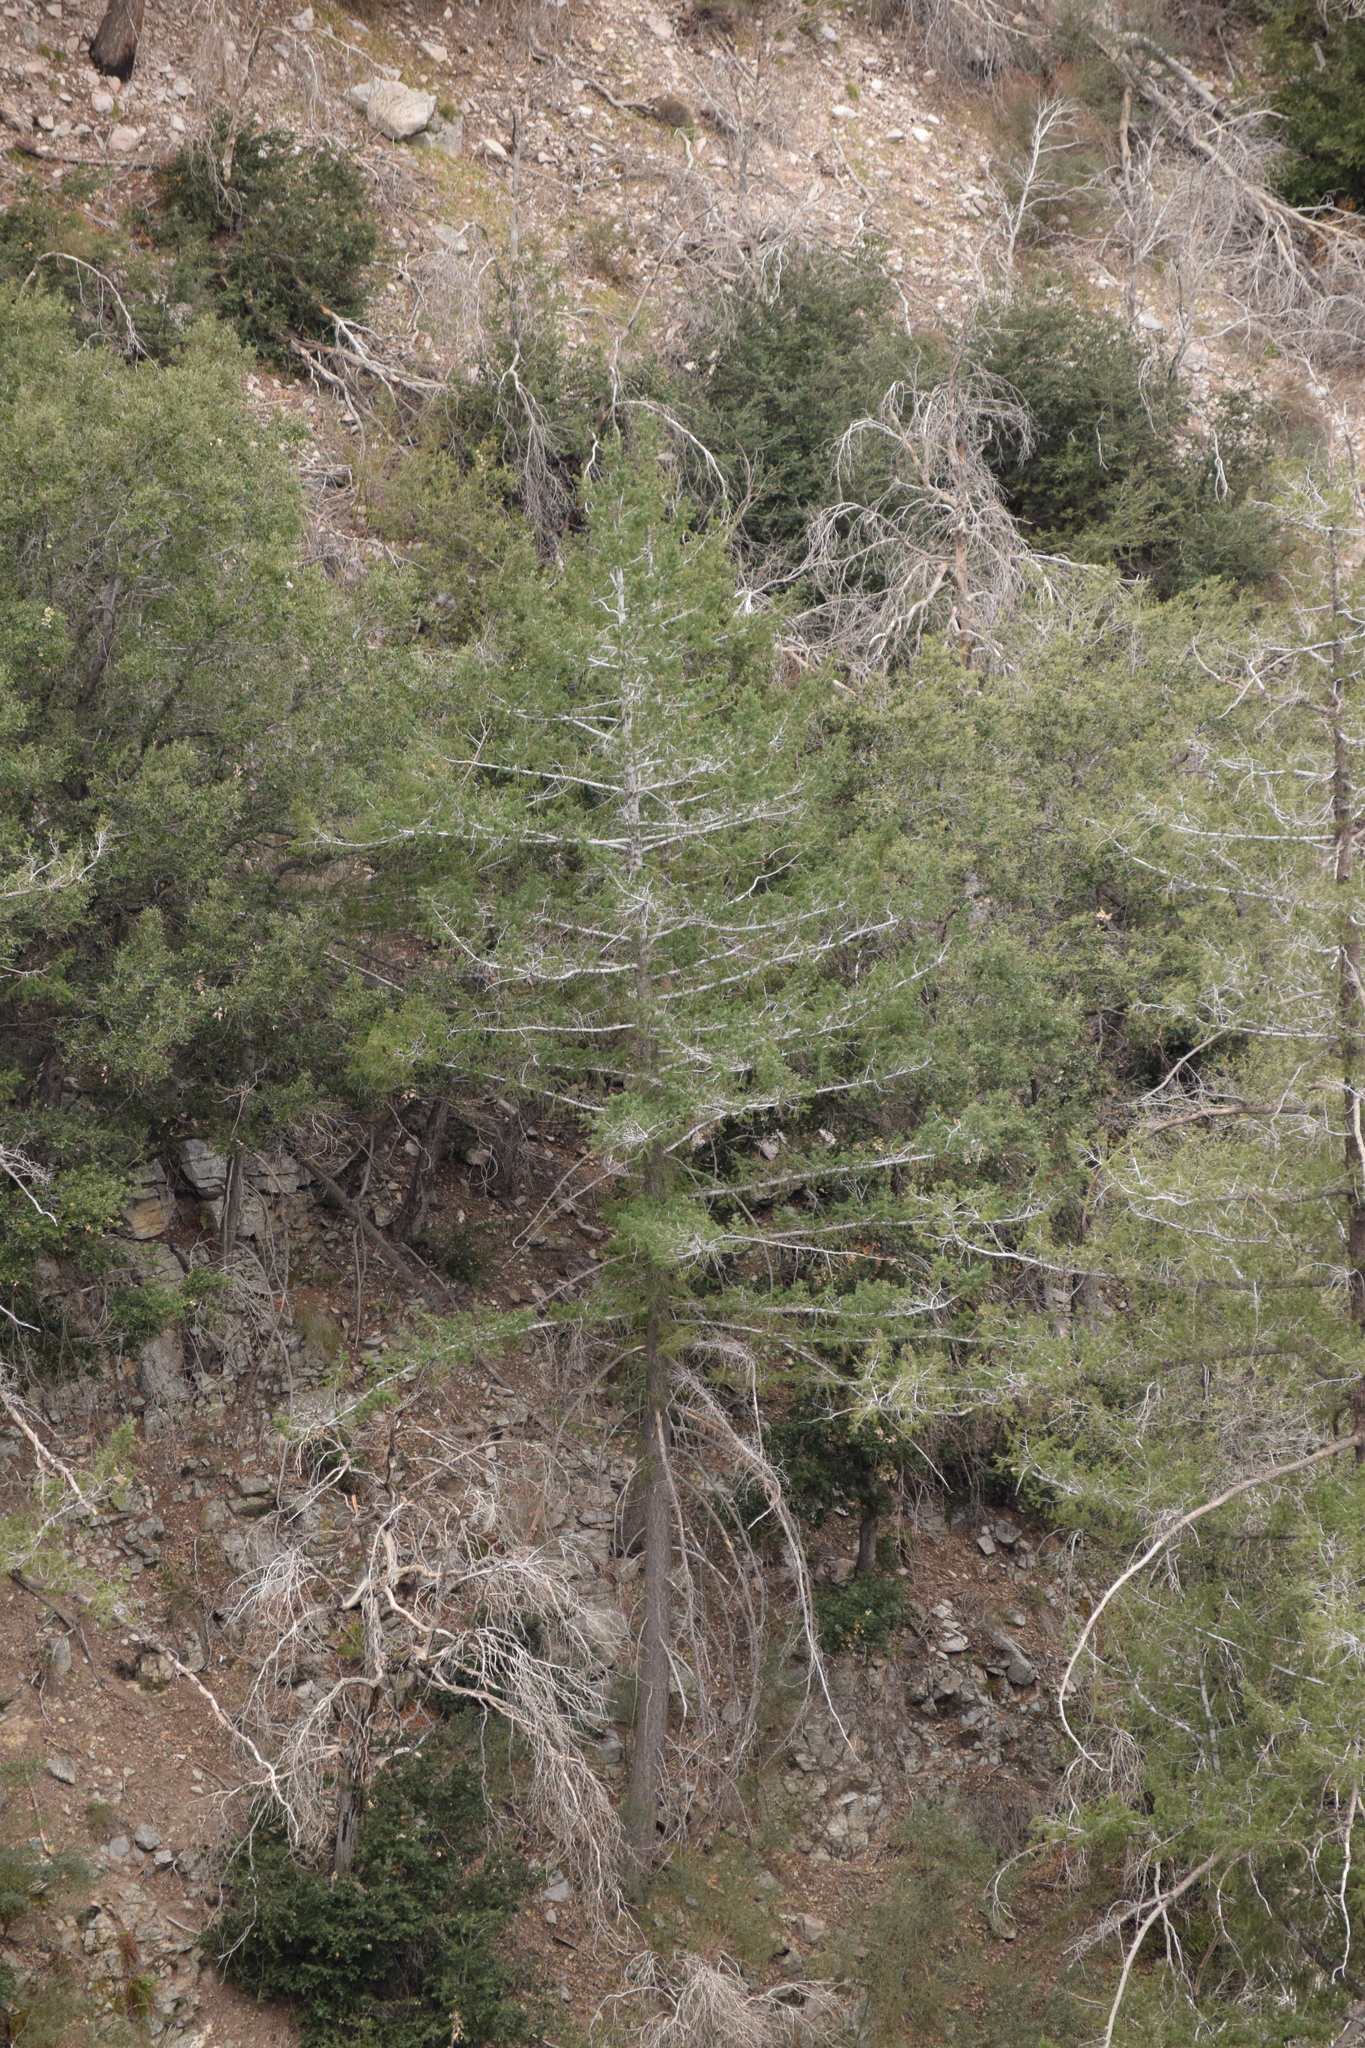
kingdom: Plantae
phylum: Tracheophyta
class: Pinopsida
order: Pinales
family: Pinaceae
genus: Pseudotsuga
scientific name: Pseudotsuga macrocarpa
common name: Big-cone douglas-fir
